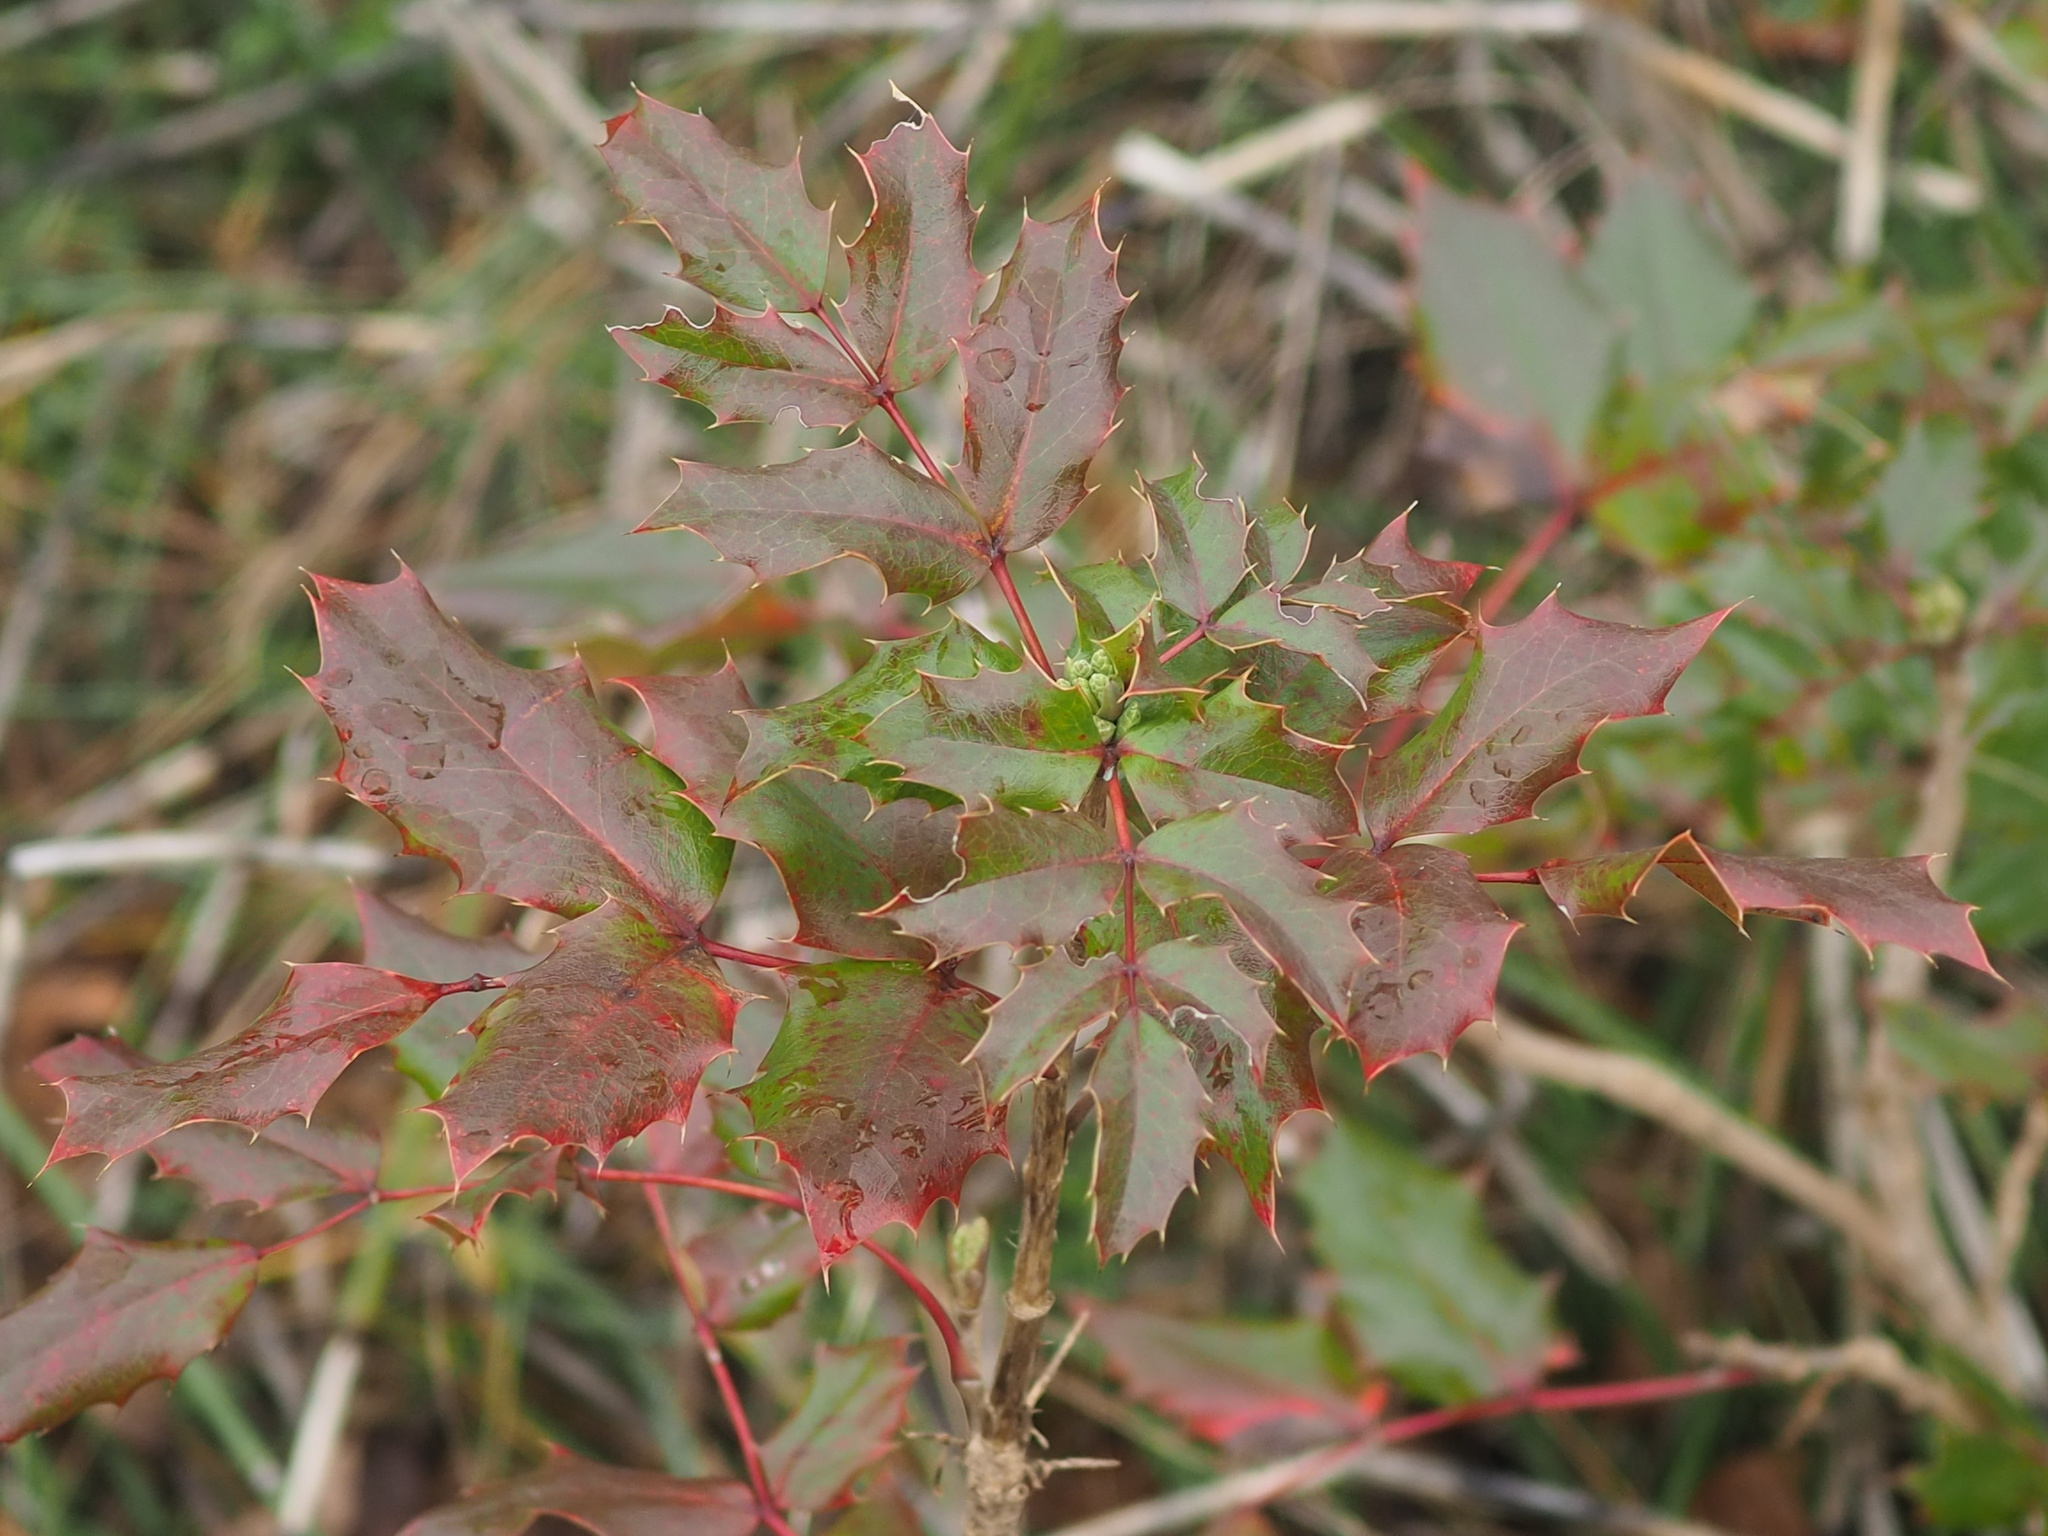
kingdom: Plantae
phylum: Tracheophyta
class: Magnoliopsida
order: Ranunculales
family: Berberidaceae
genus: Mahonia
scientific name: Mahonia aquifolium
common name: Oregon-grape
